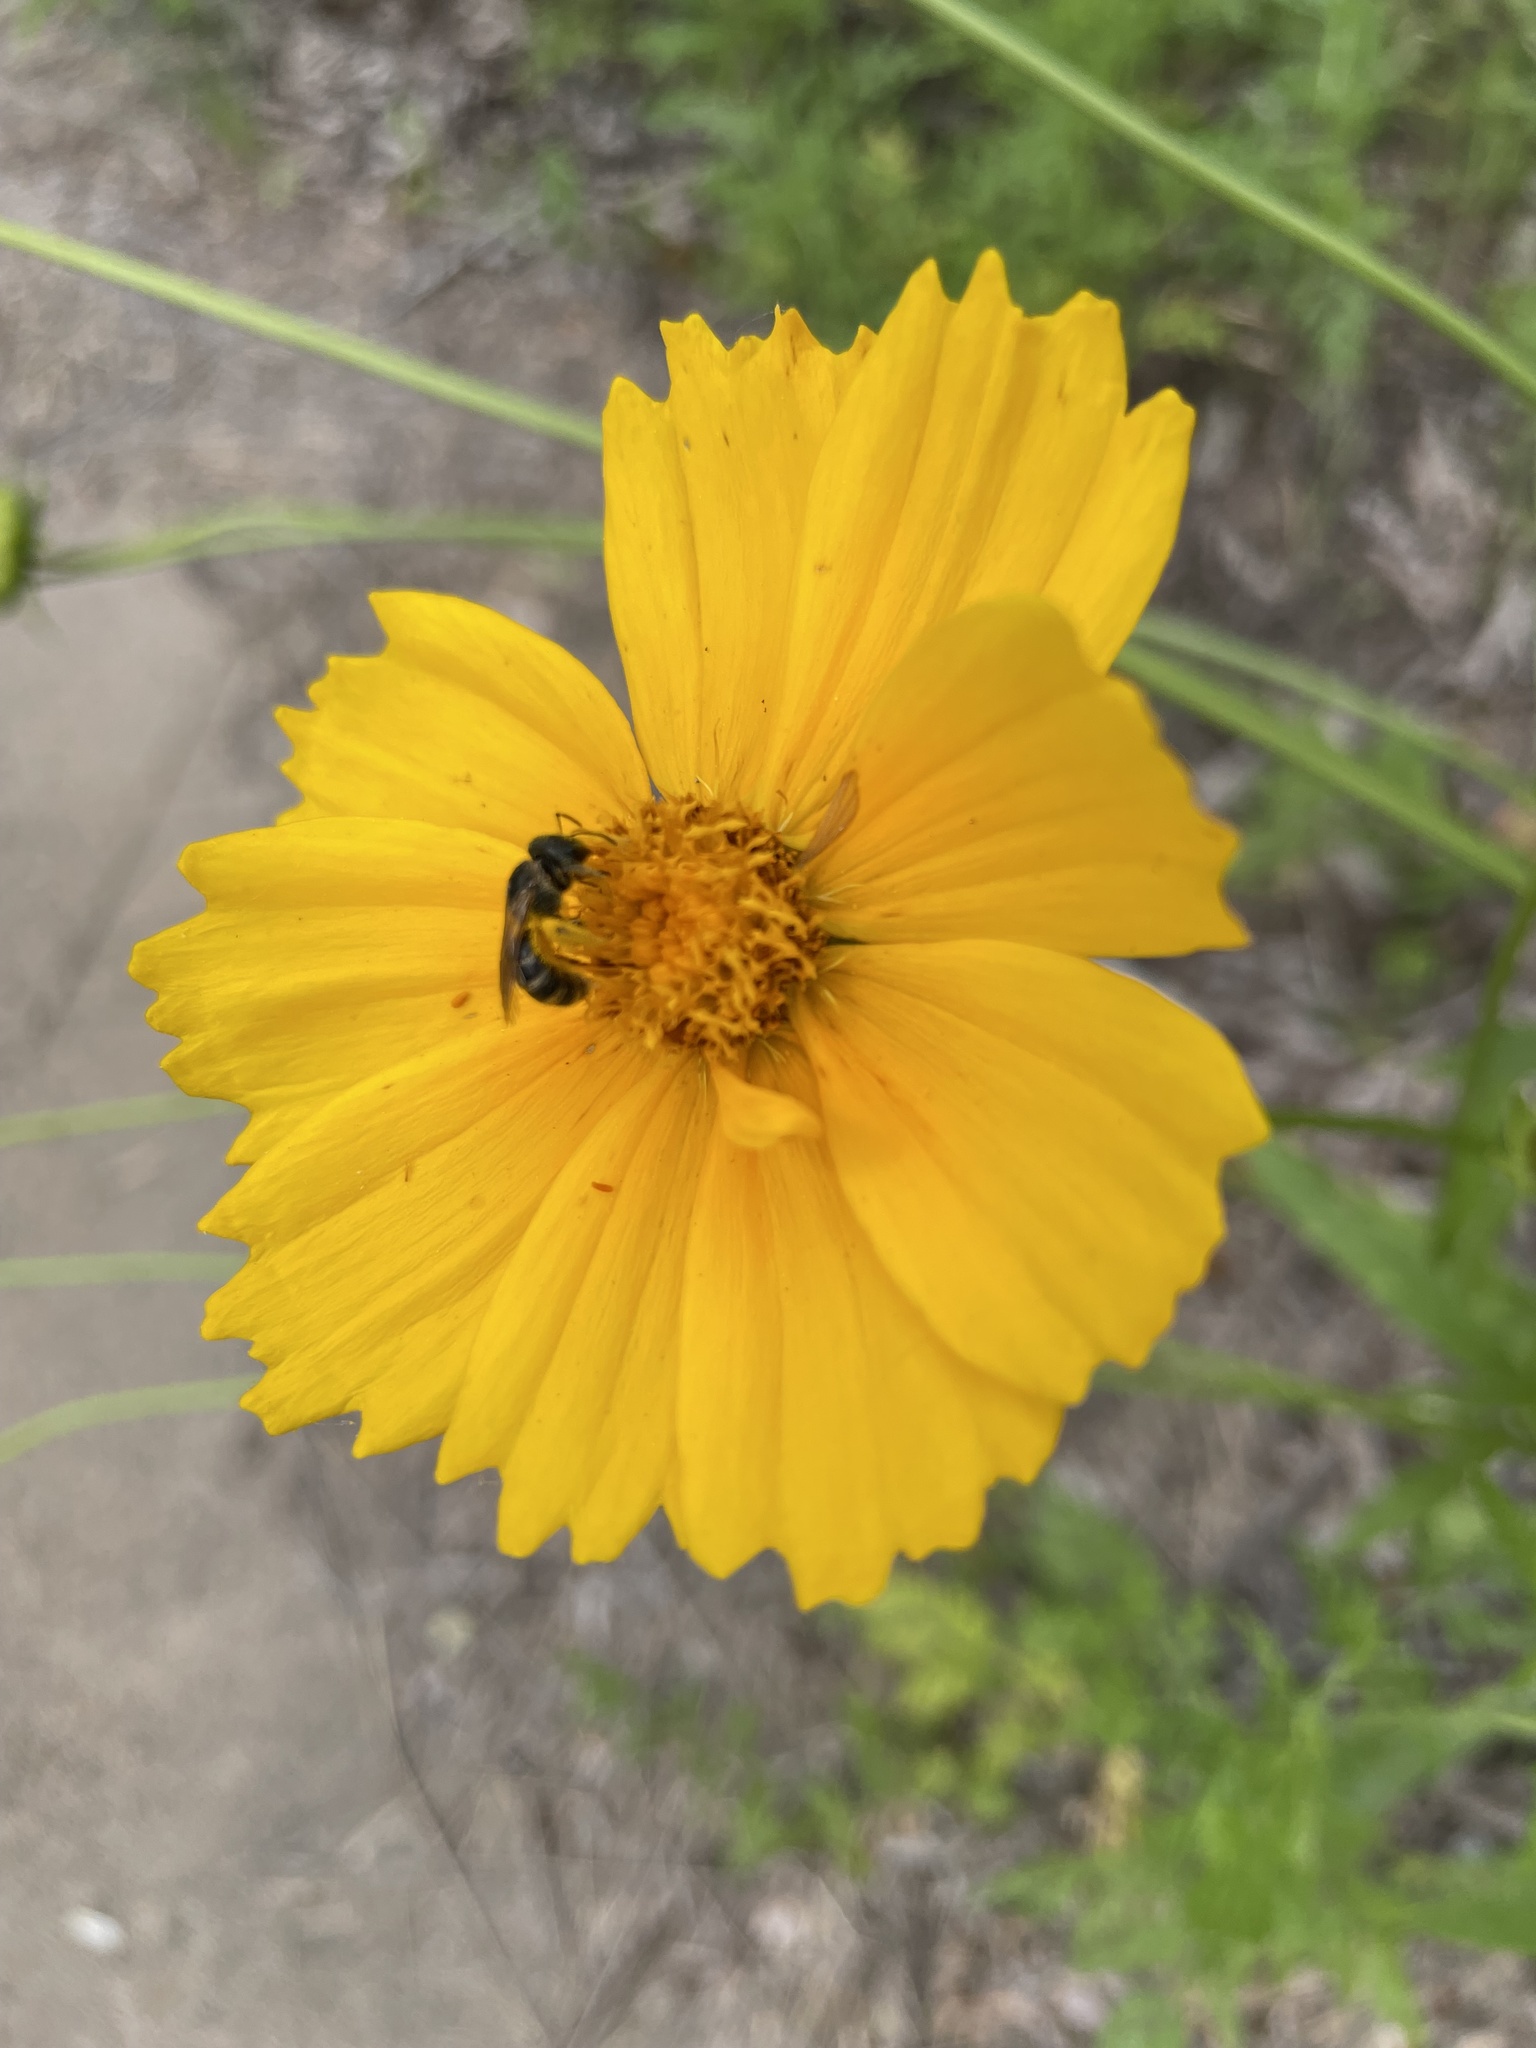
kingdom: Animalia
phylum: Arthropoda
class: Insecta
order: Hymenoptera
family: Halictidae
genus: Halictus
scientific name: Halictus ligatus
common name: Ligated furrow bee
